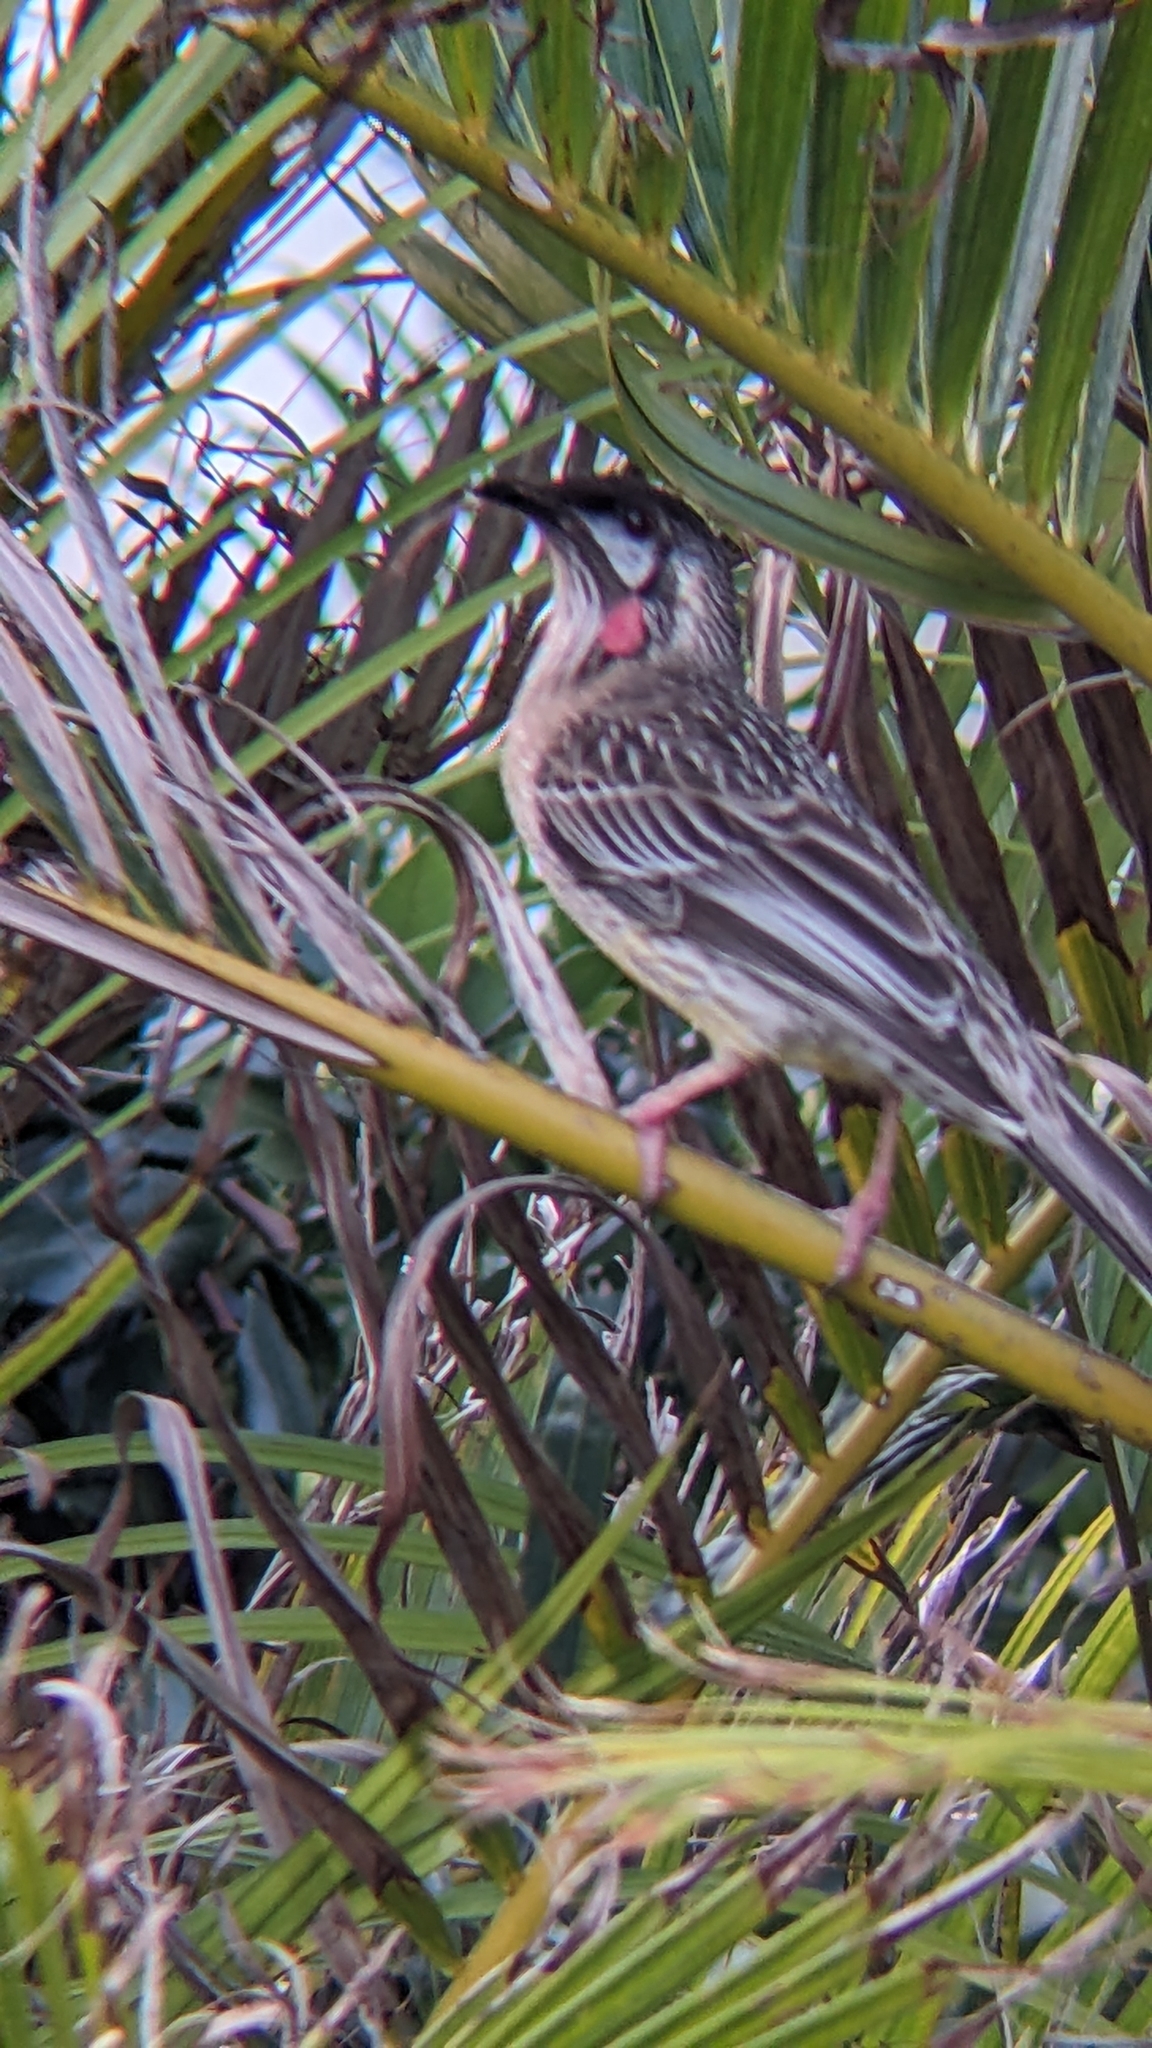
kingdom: Animalia
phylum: Chordata
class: Aves
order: Passeriformes
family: Meliphagidae
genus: Anthochaera
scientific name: Anthochaera carunculata
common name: Red wattlebird
